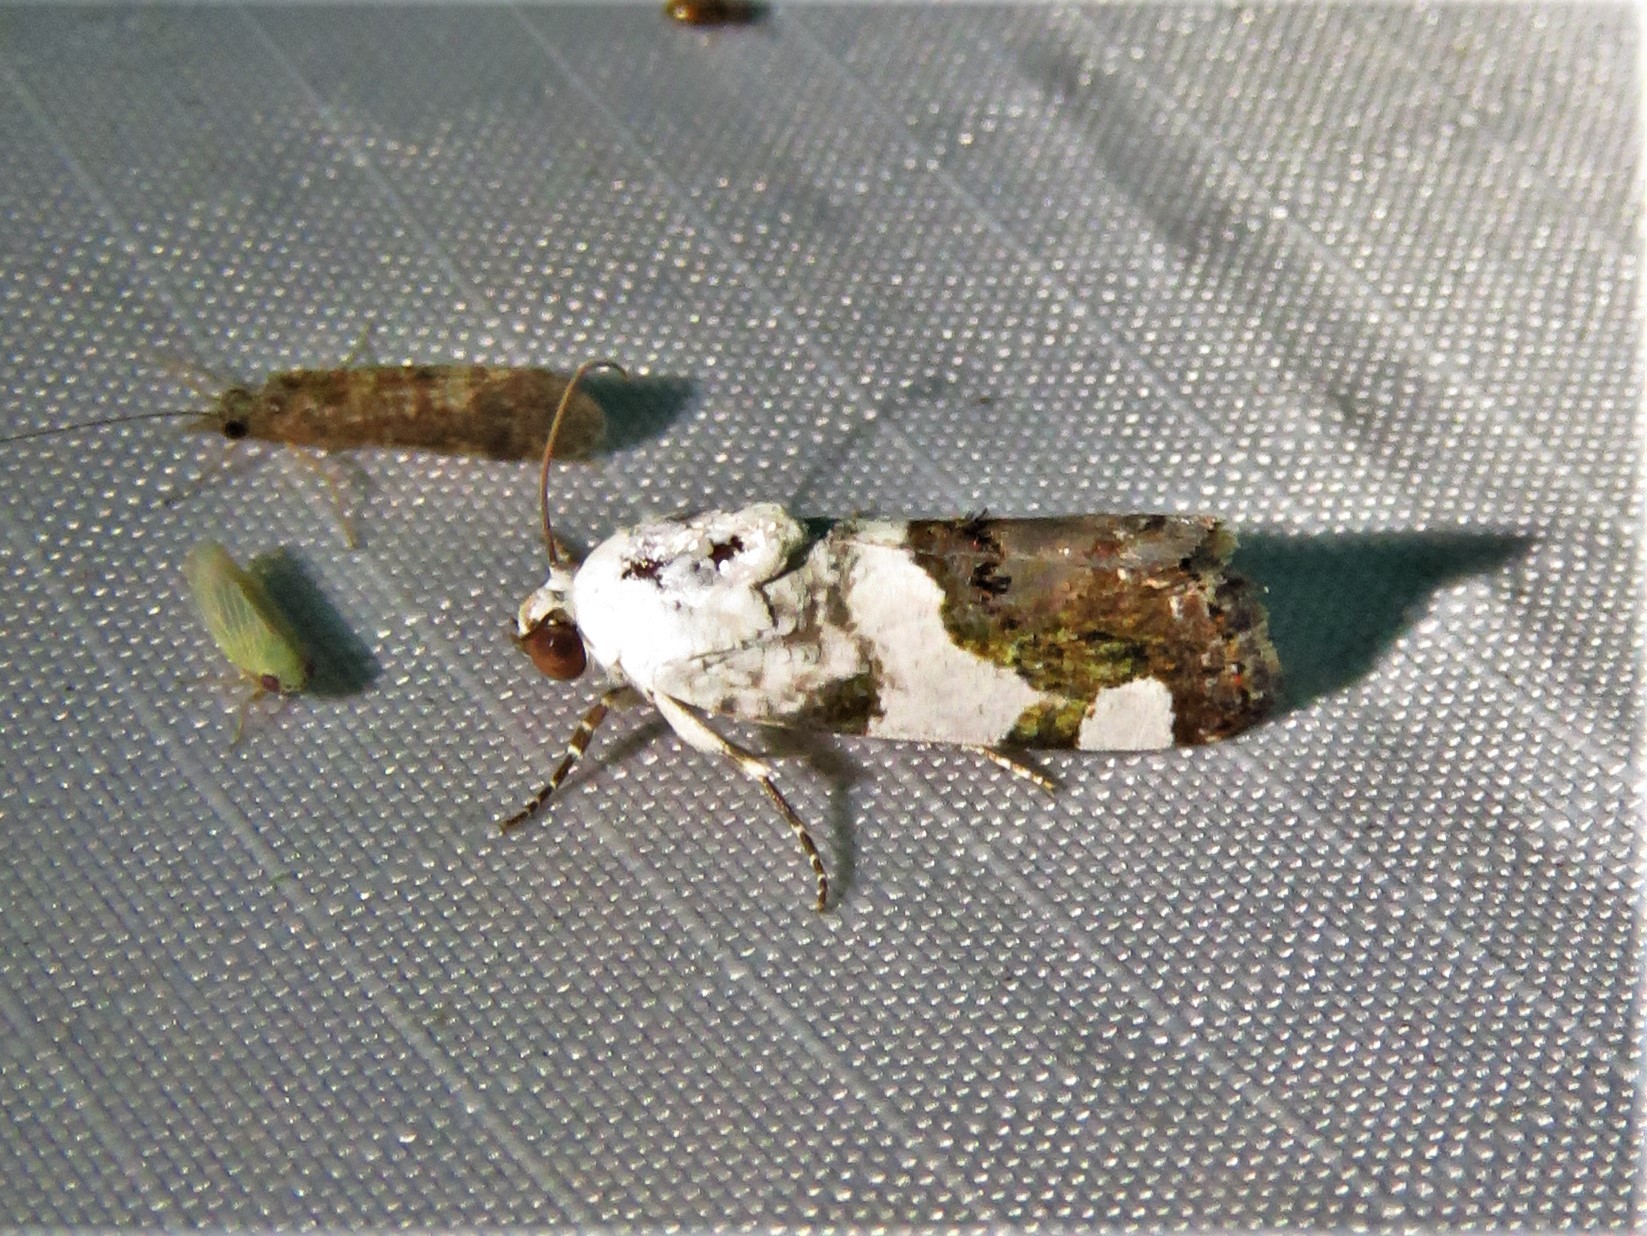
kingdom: Animalia
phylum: Arthropoda
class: Insecta
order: Lepidoptera
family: Noctuidae
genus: Acontia
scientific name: Acontia quadriplaga
